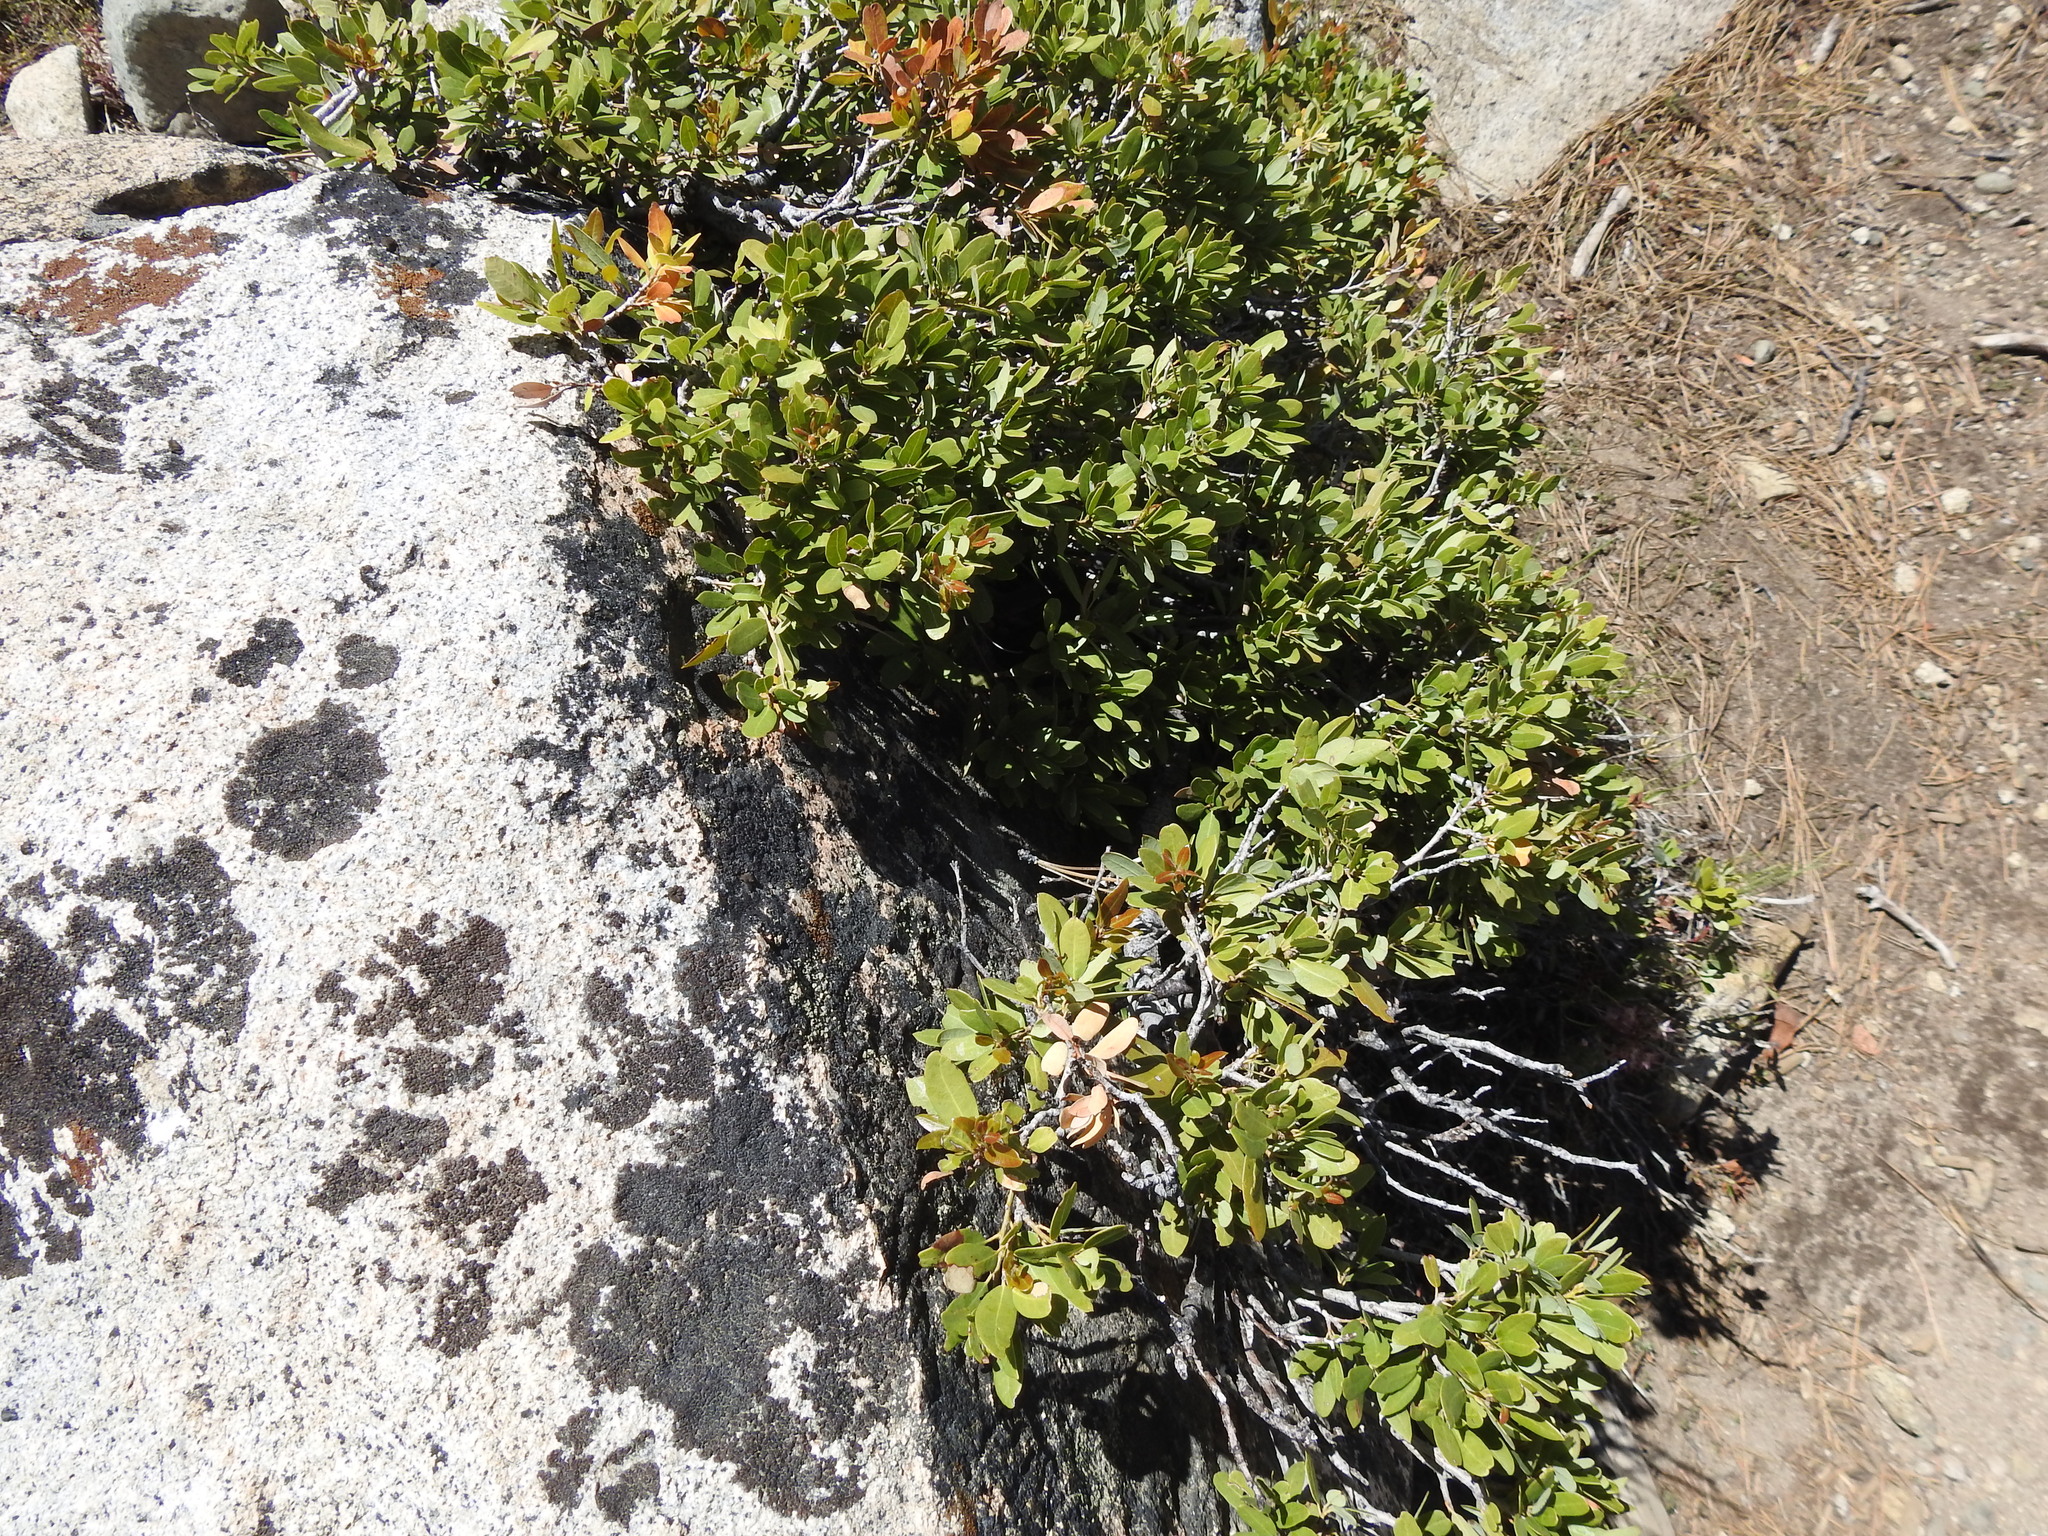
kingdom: Plantae
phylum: Tracheophyta
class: Magnoliopsida
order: Fagales
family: Fagaceae
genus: Quercus
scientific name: Quercus vacciniifolia
